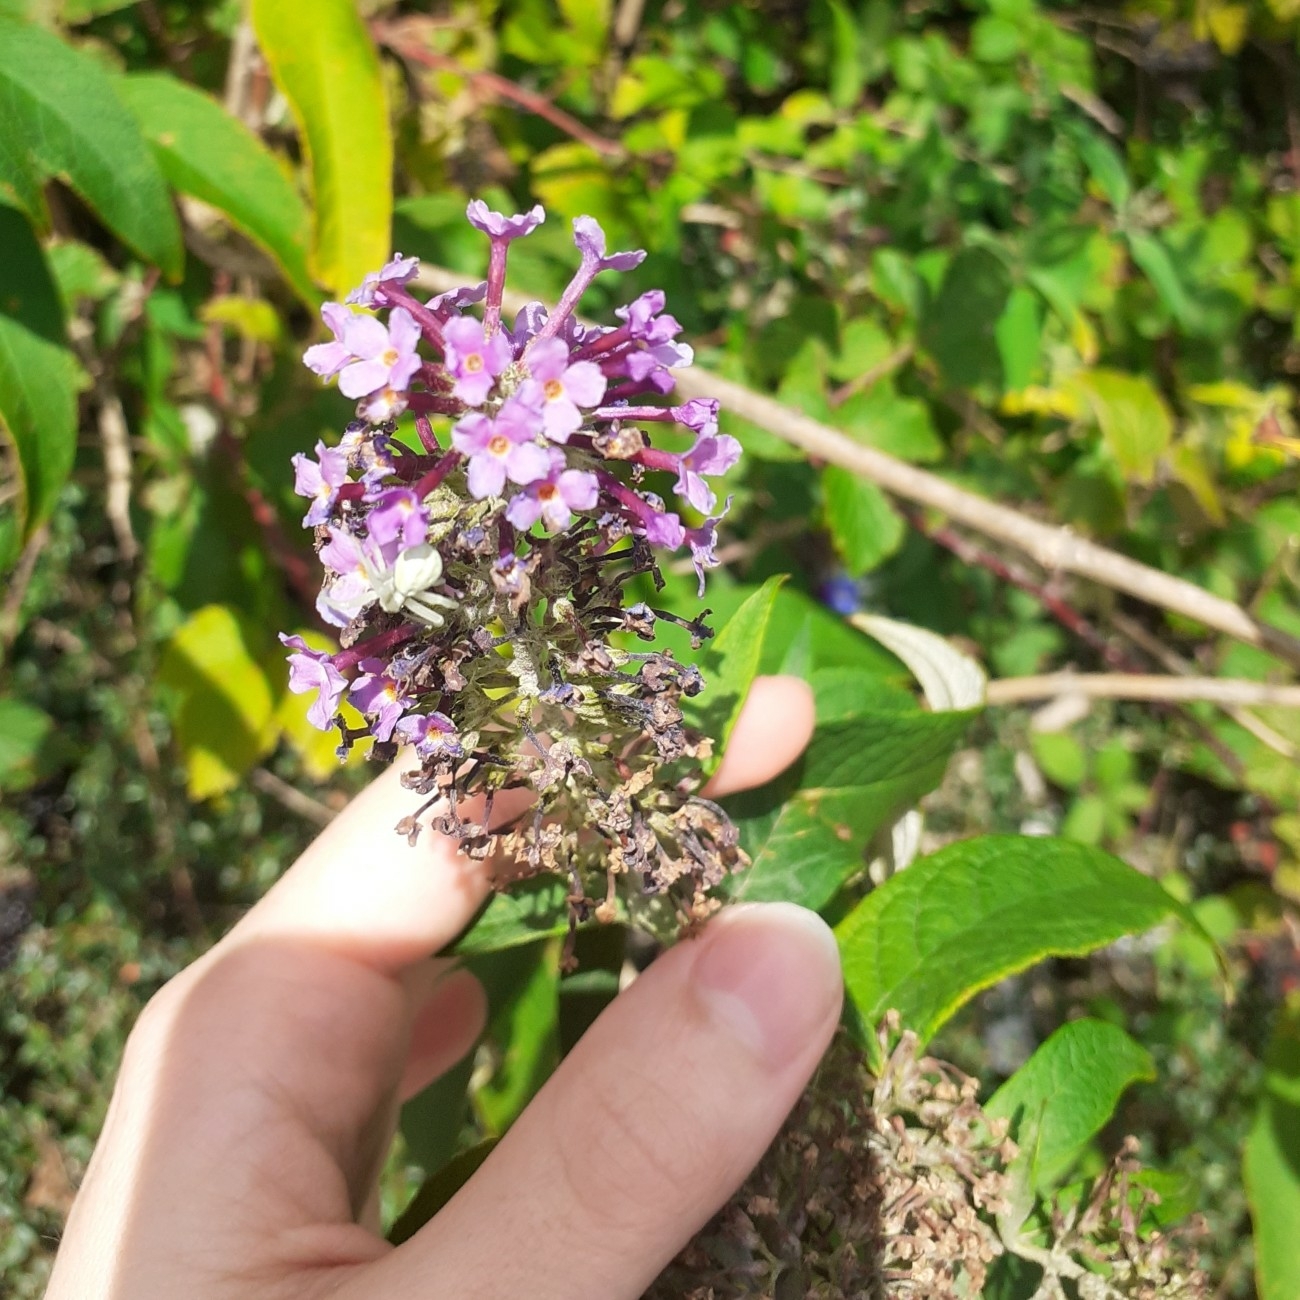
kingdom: Plantae
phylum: Tracheophyta
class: Magnoliopsida
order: Lamiales
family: Scrophulariaceae
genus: Buddleja
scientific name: Buddleja davidii
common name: Butterfly-bush
